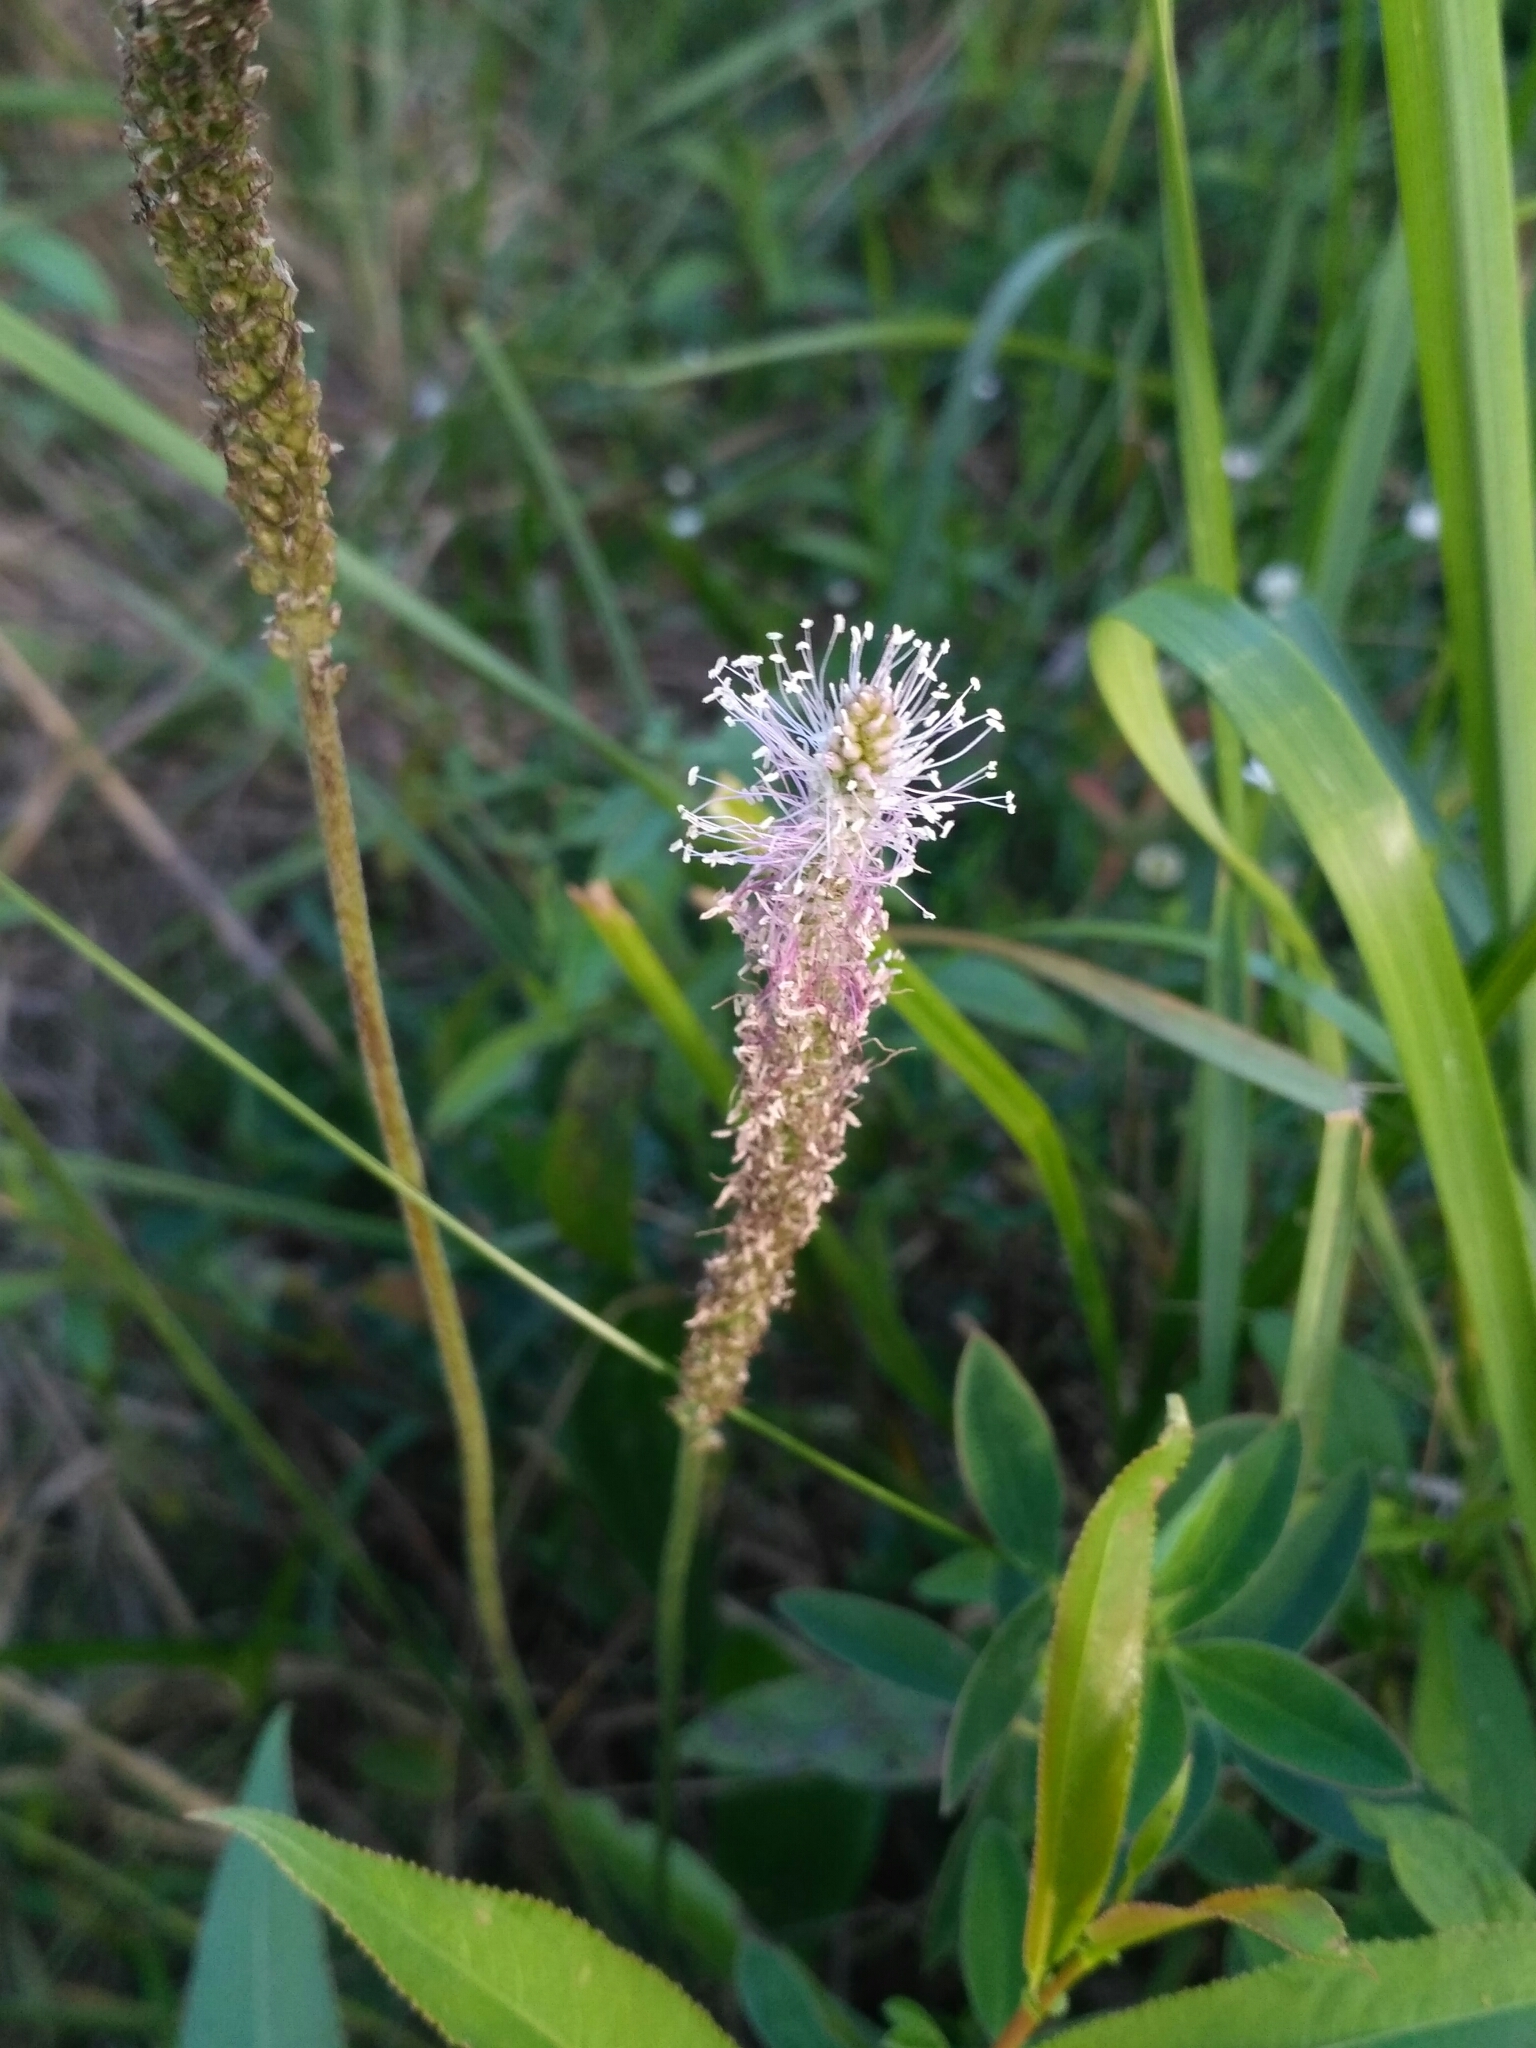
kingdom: Plantae
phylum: Tracheophyta
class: Magnoliopsida
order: Lamiales
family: Plantaginaceae
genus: Plantago
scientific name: Plantago media
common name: Hoary plantain
